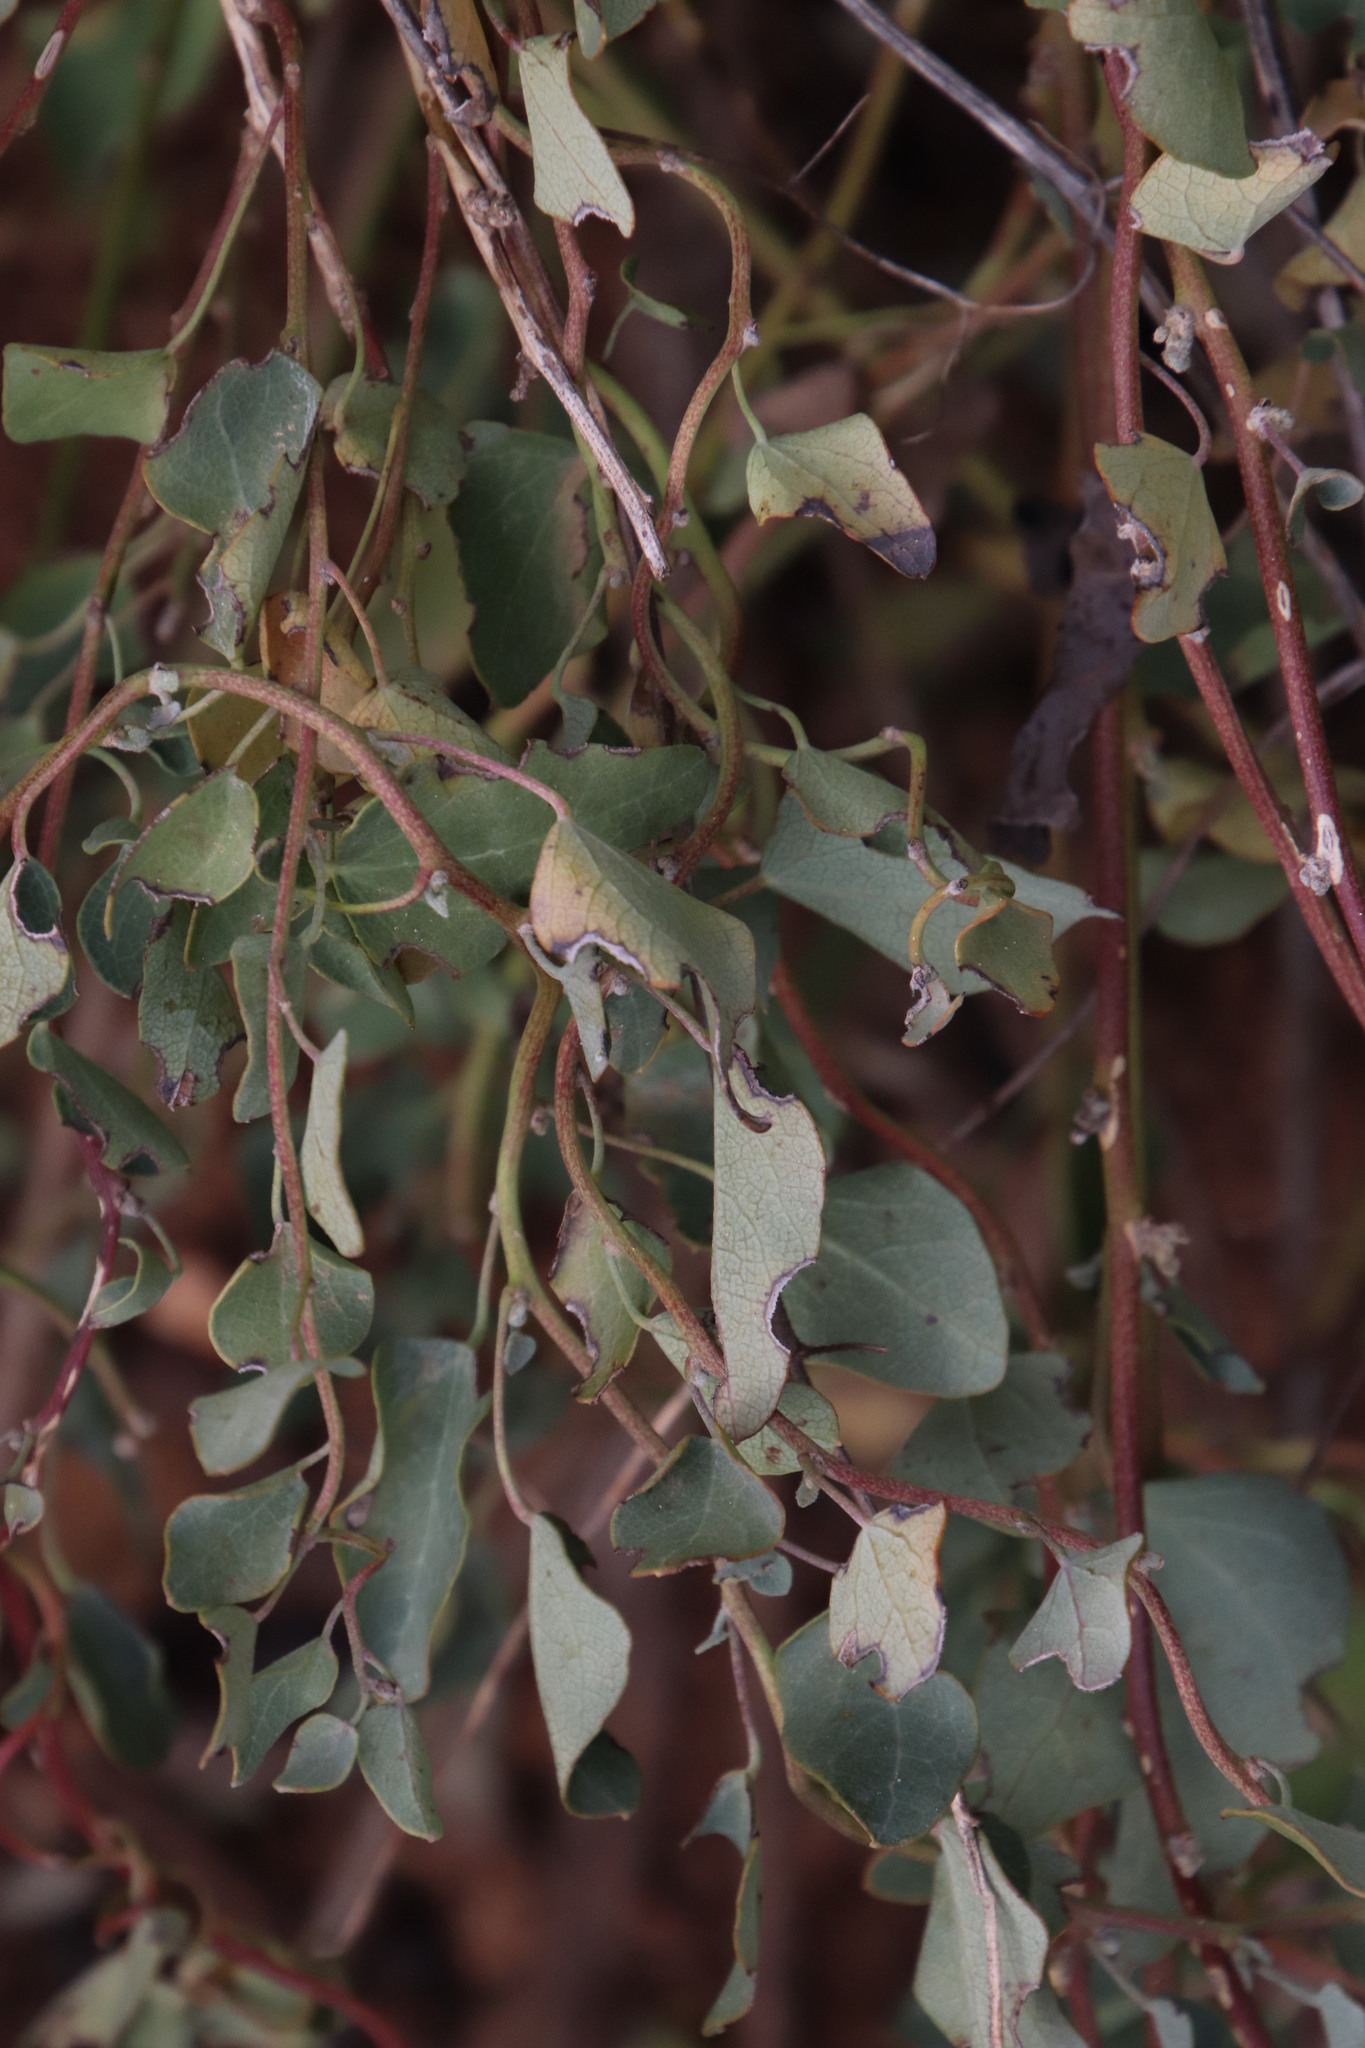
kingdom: Plantae
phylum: Tracheophyta
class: Magnoliopsida
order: Ranunculales
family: Menispermaceae
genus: Cissampelos
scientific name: Cissampelos capensis
